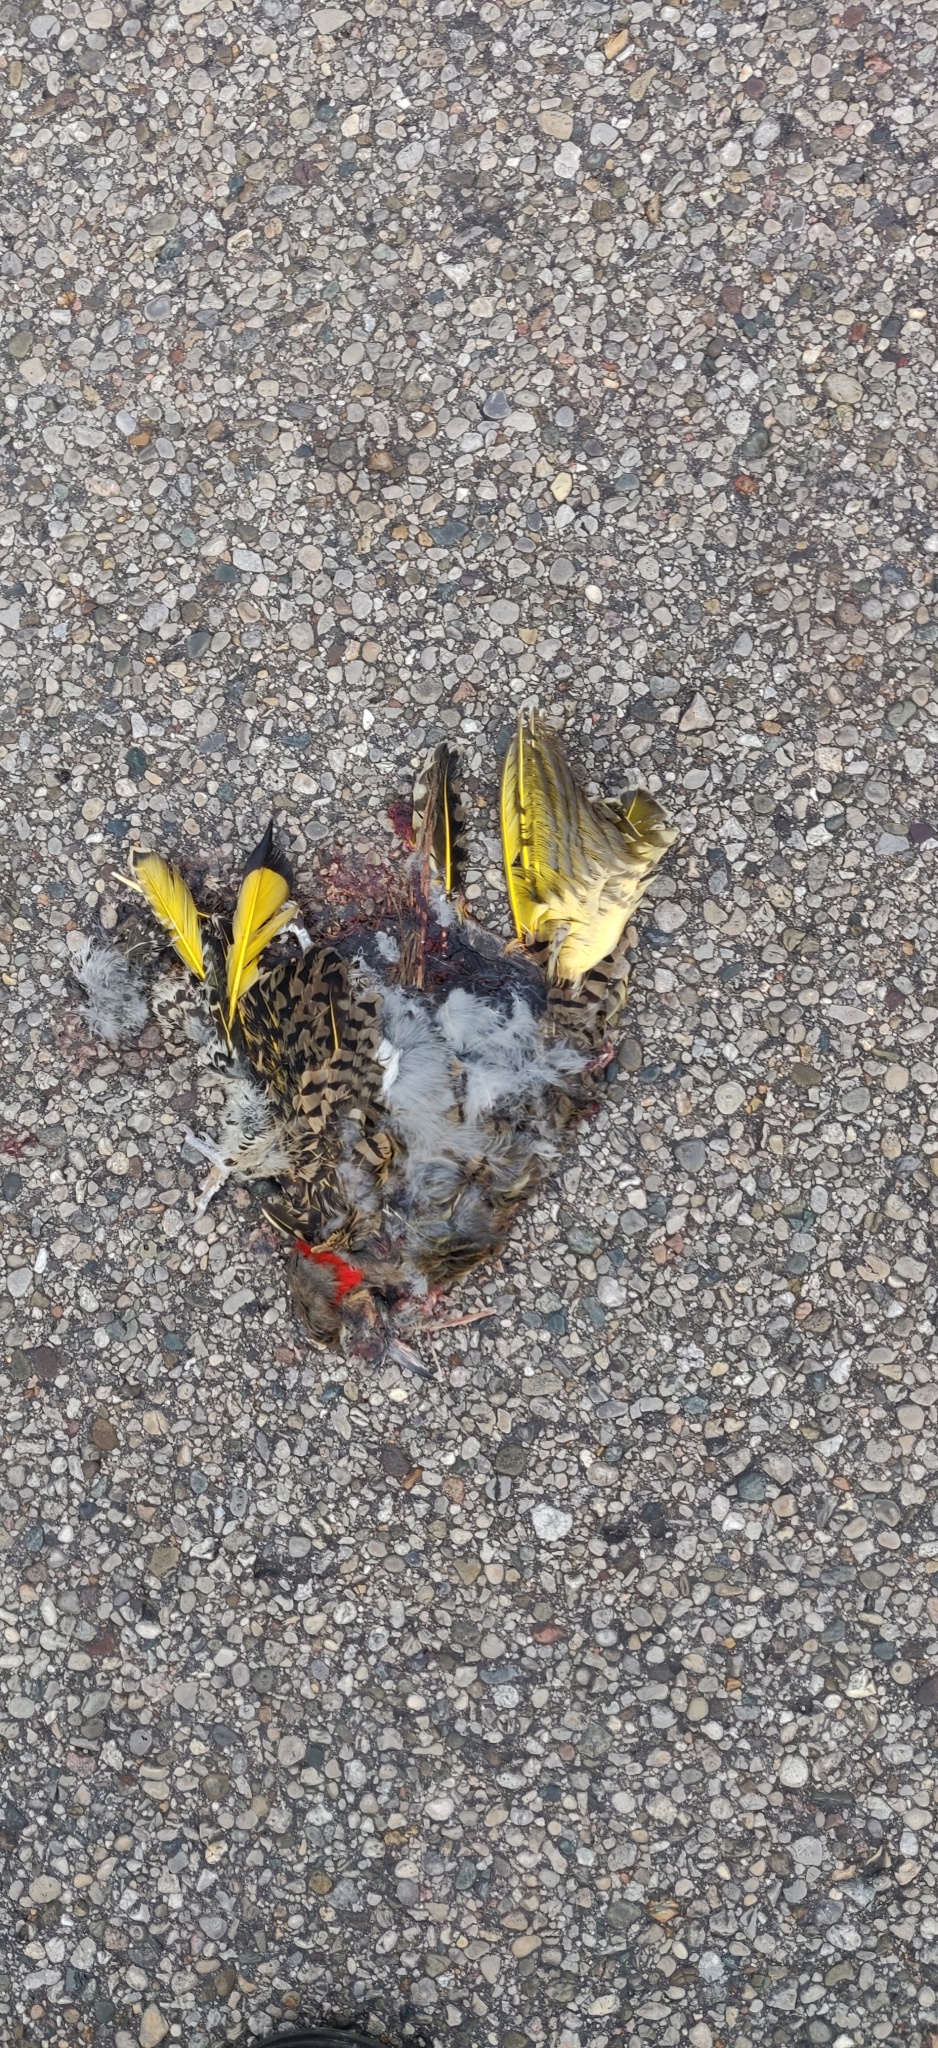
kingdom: Animalia
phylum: Chordata
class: Aves
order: Piciformes
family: Picidae
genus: Colaptes
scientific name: Colaptes auratus
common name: Northern flicker
